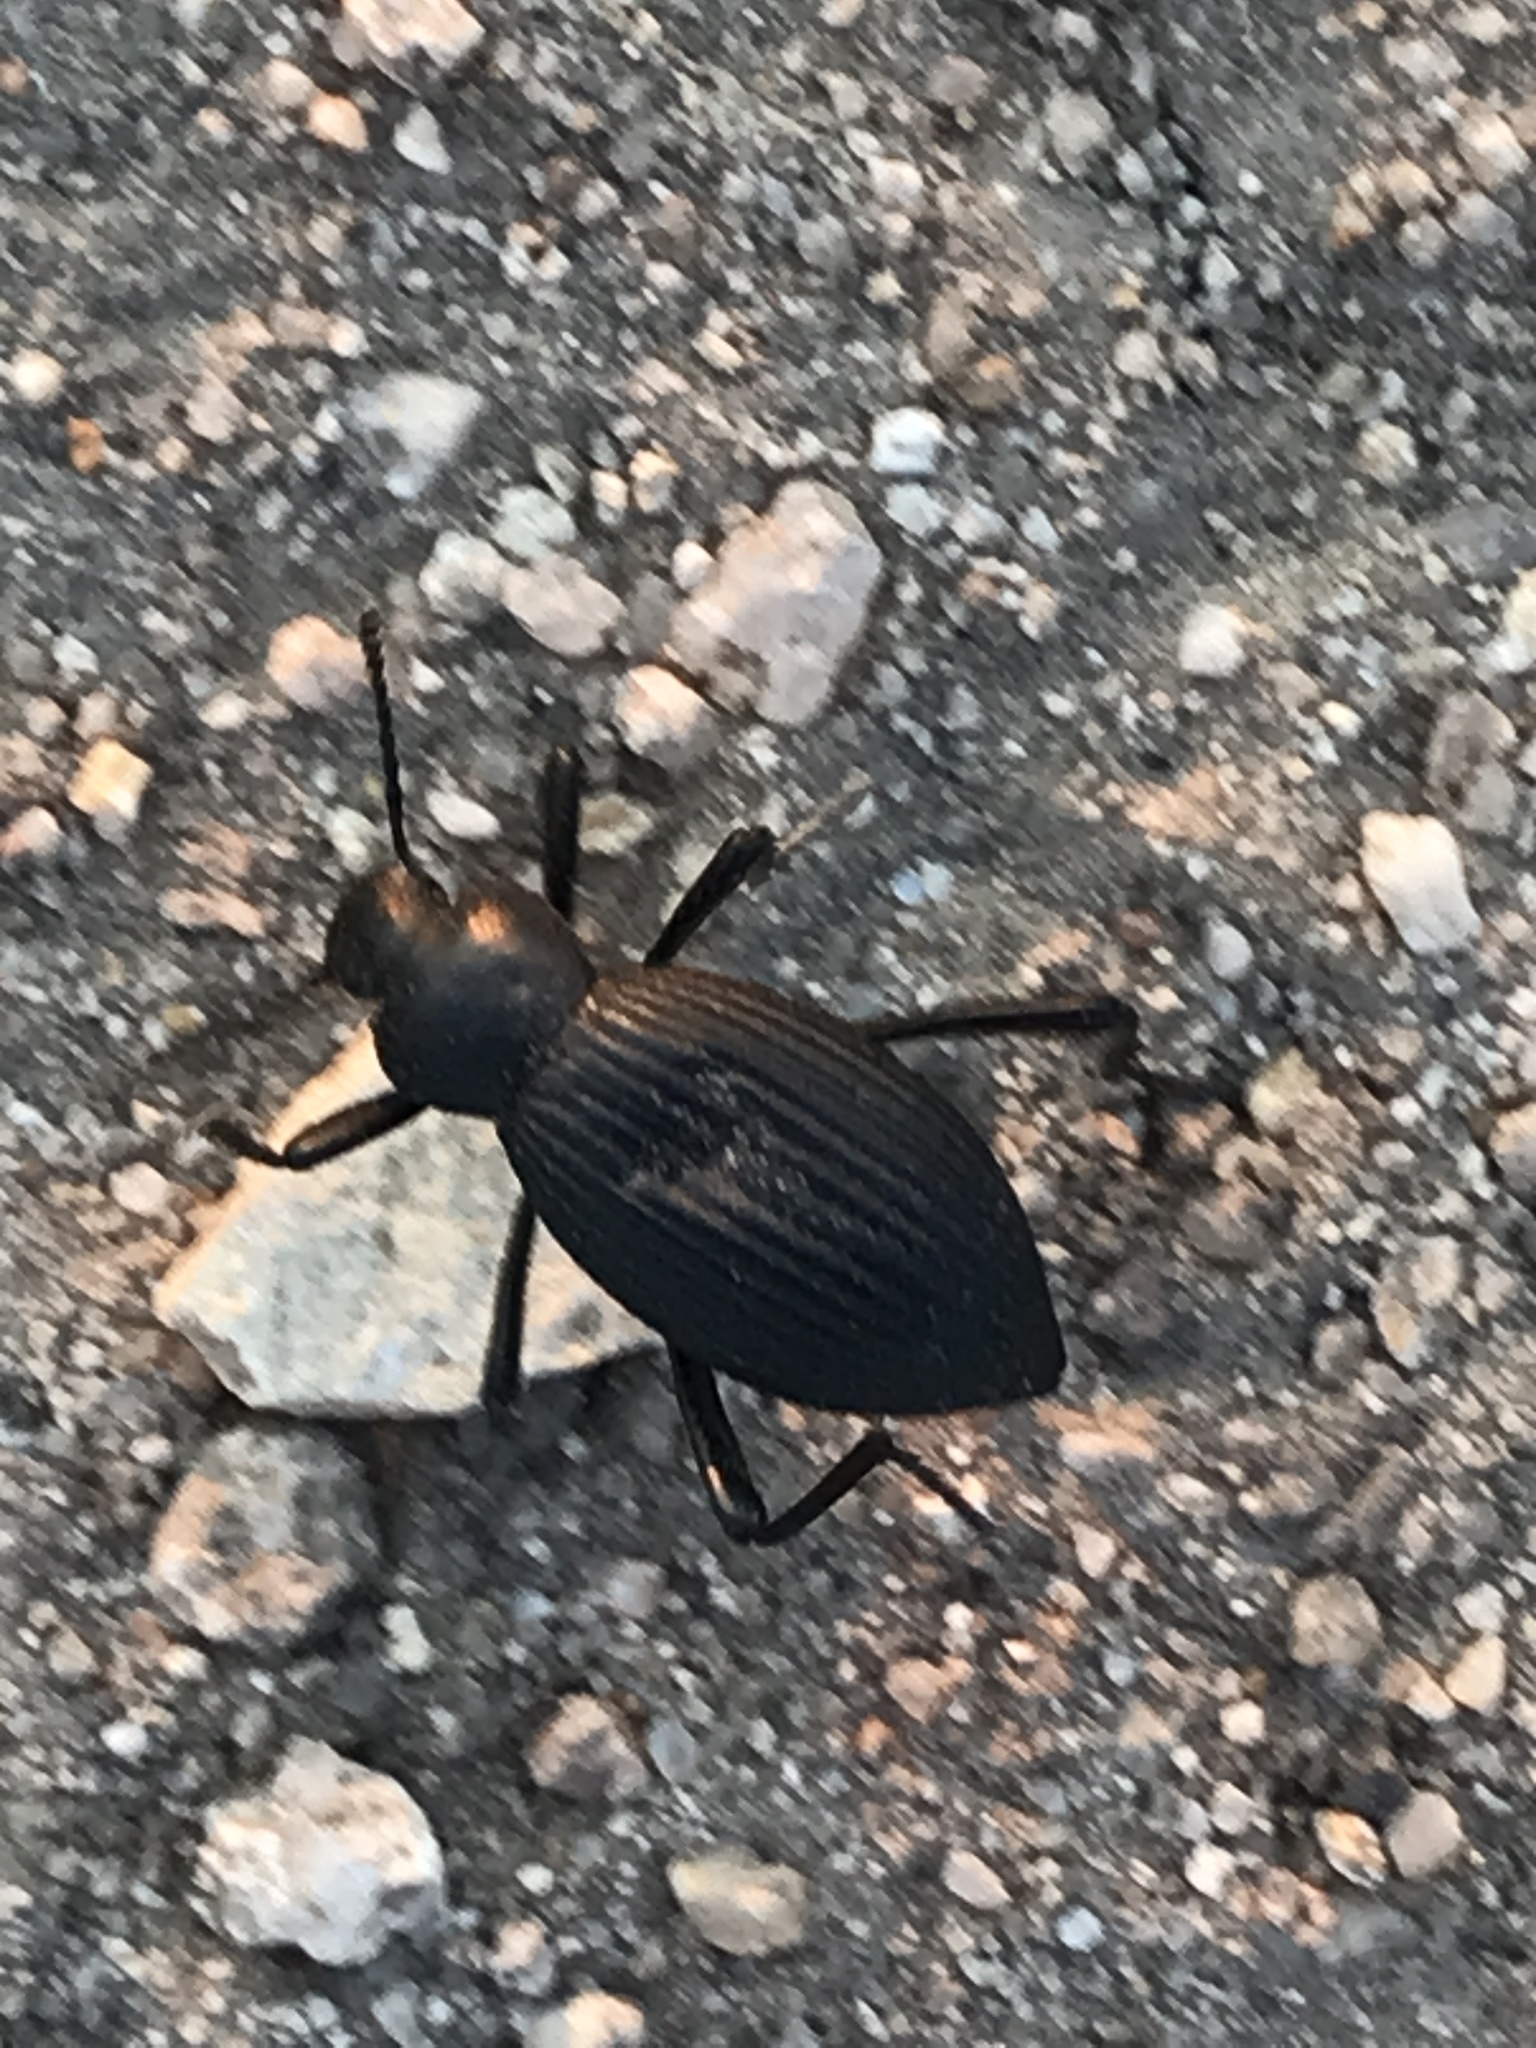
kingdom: Animalia
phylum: Arthropoda
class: Insecta
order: Coleoptera
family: Tenebrionidae
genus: Eleodes
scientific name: Eleodes hispilabris
